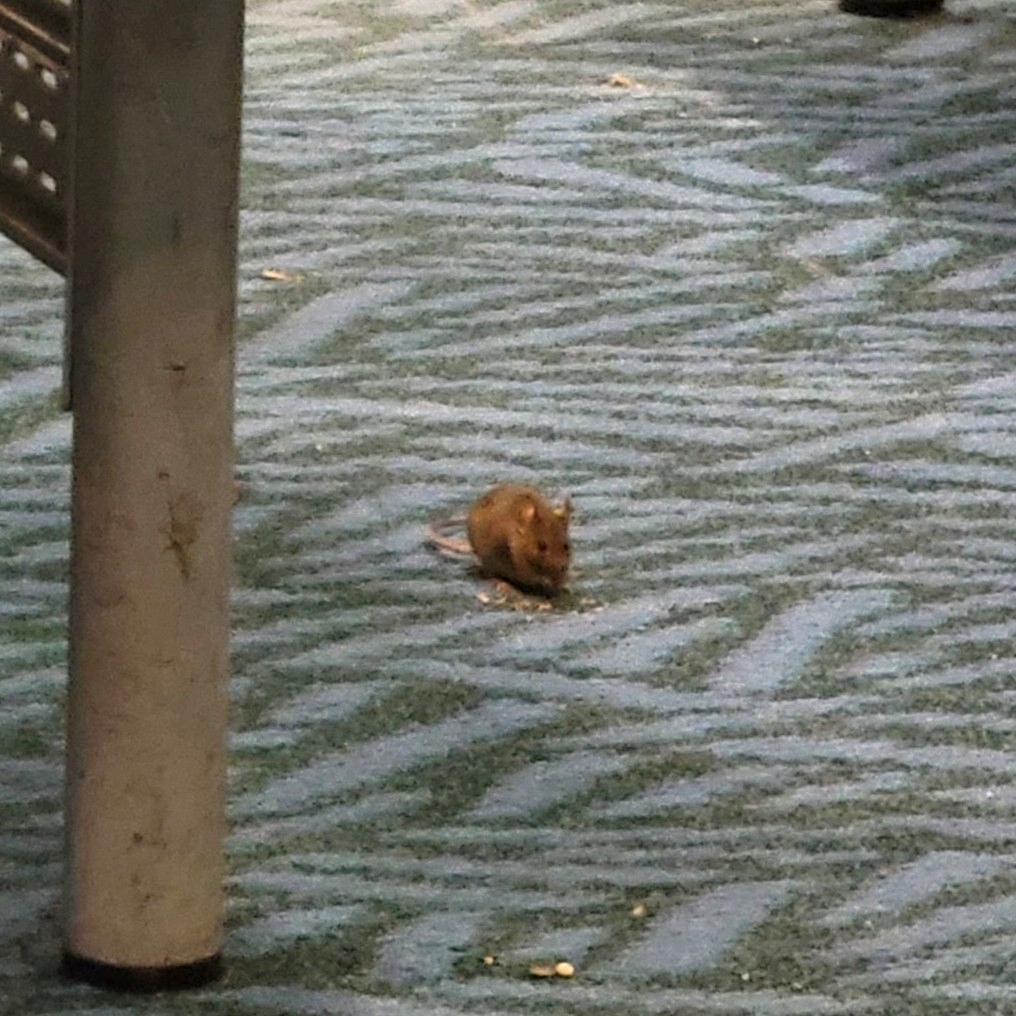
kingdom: Animalia
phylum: Chordata
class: Mammalia
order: Rodentia
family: Muridae
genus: Mus
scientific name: Mus musculus
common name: House mouse
